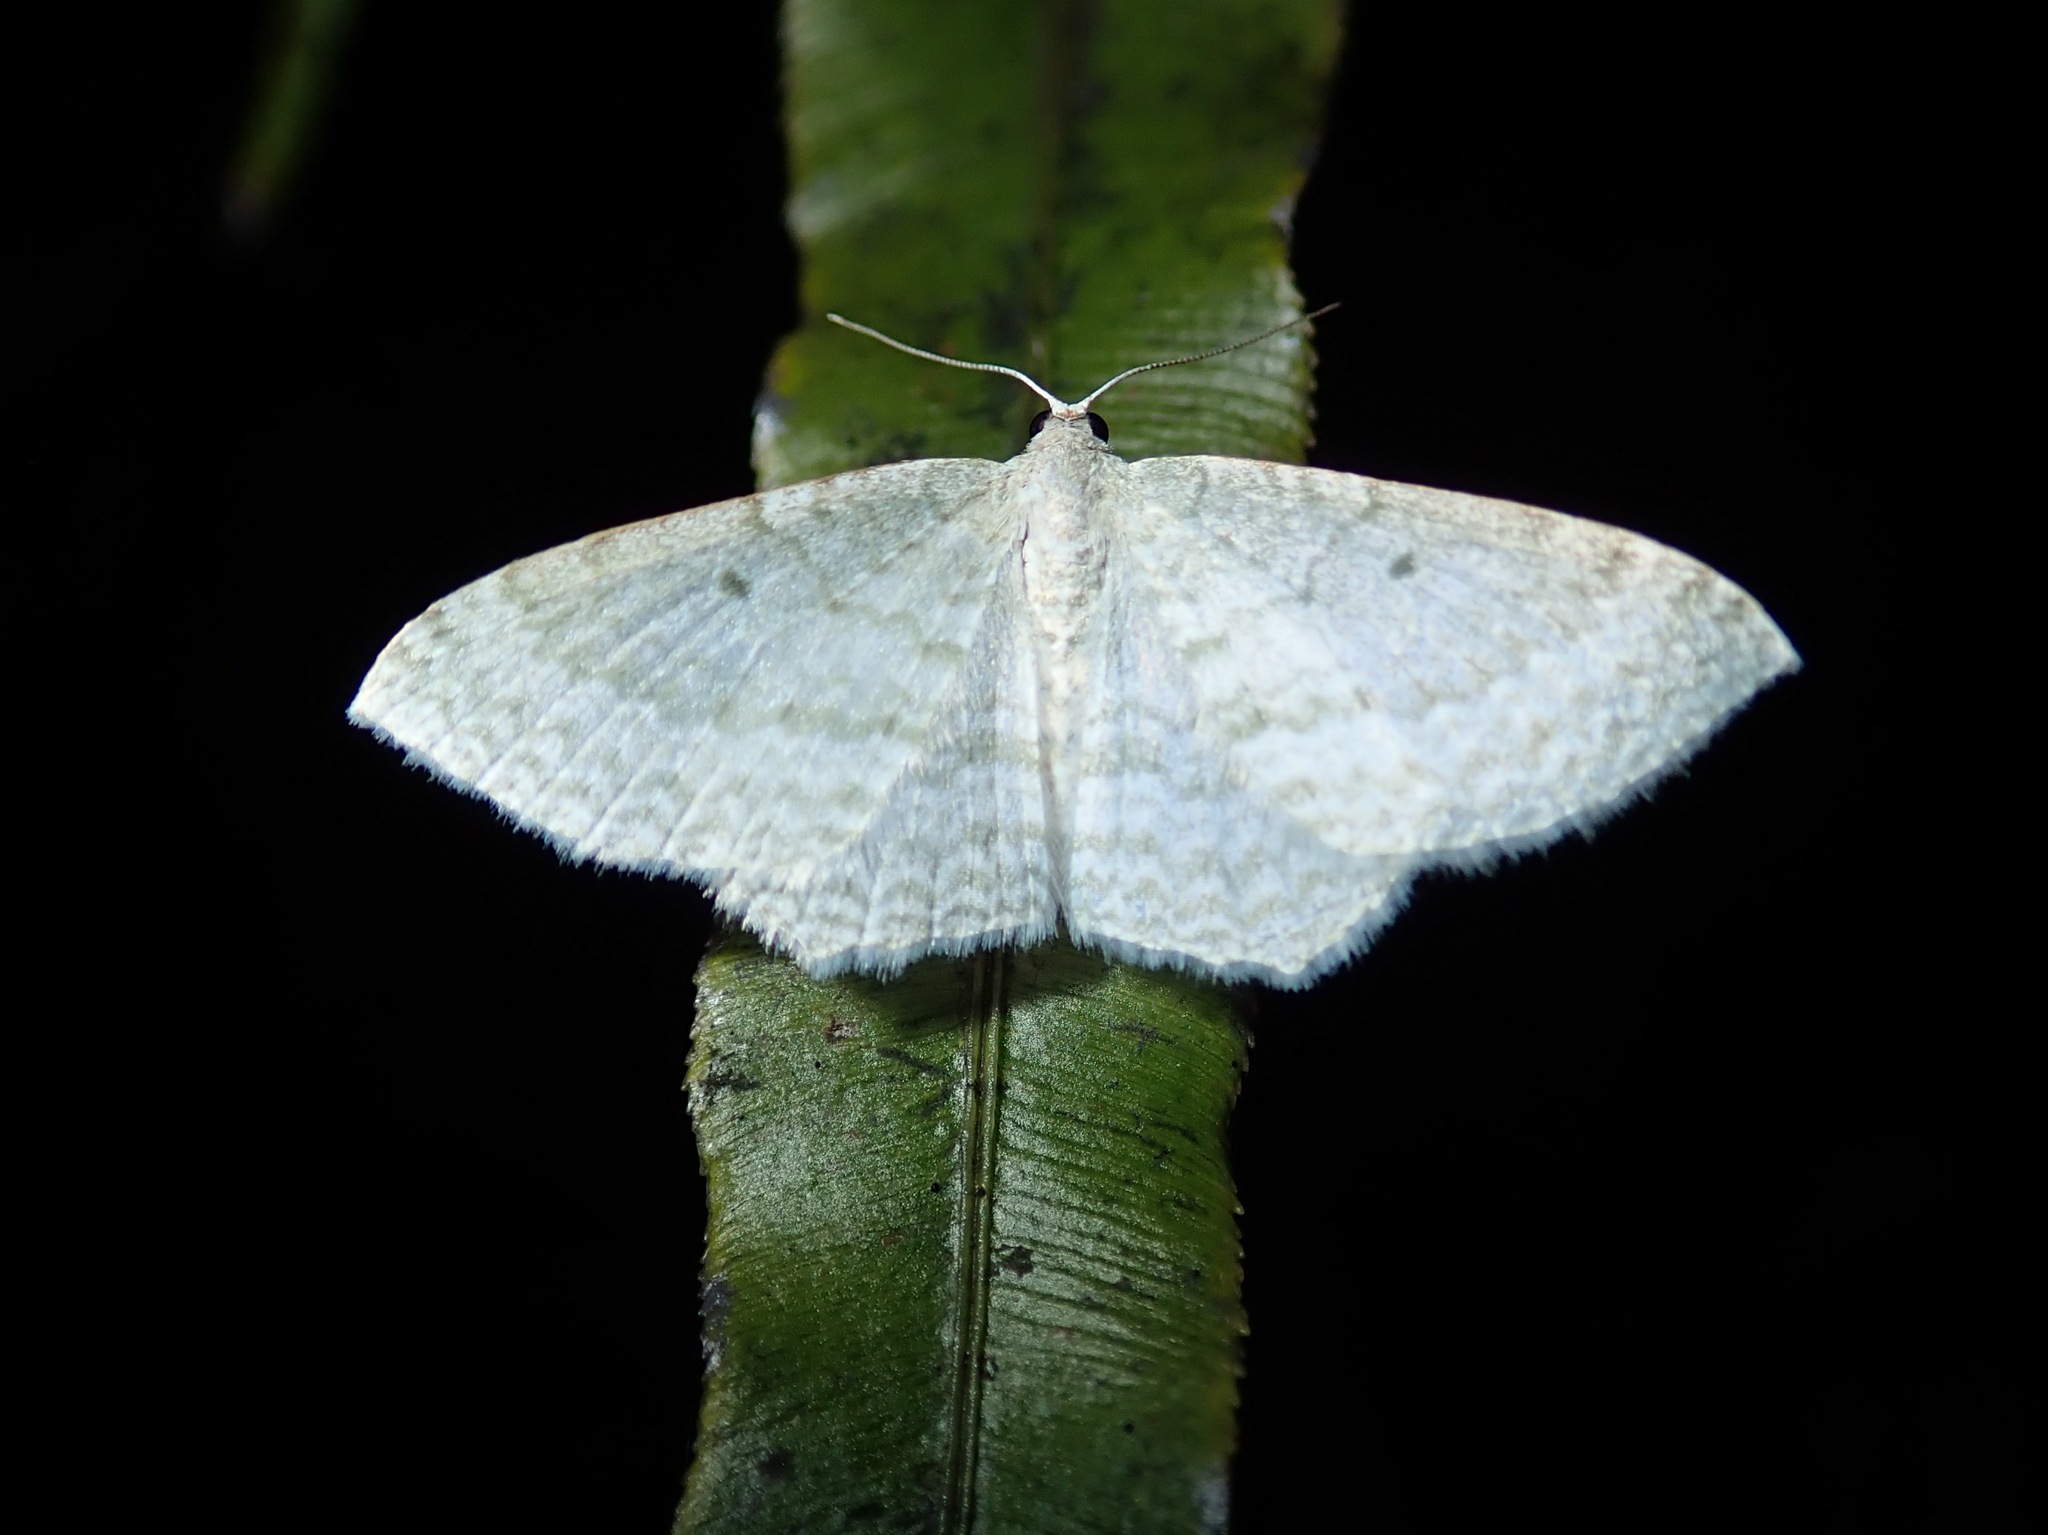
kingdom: Animalia
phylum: Arthropoda
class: Insecta
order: Lepidoptera
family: Geometridae
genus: Poecilasthena
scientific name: Poecilasthena pulchraria
